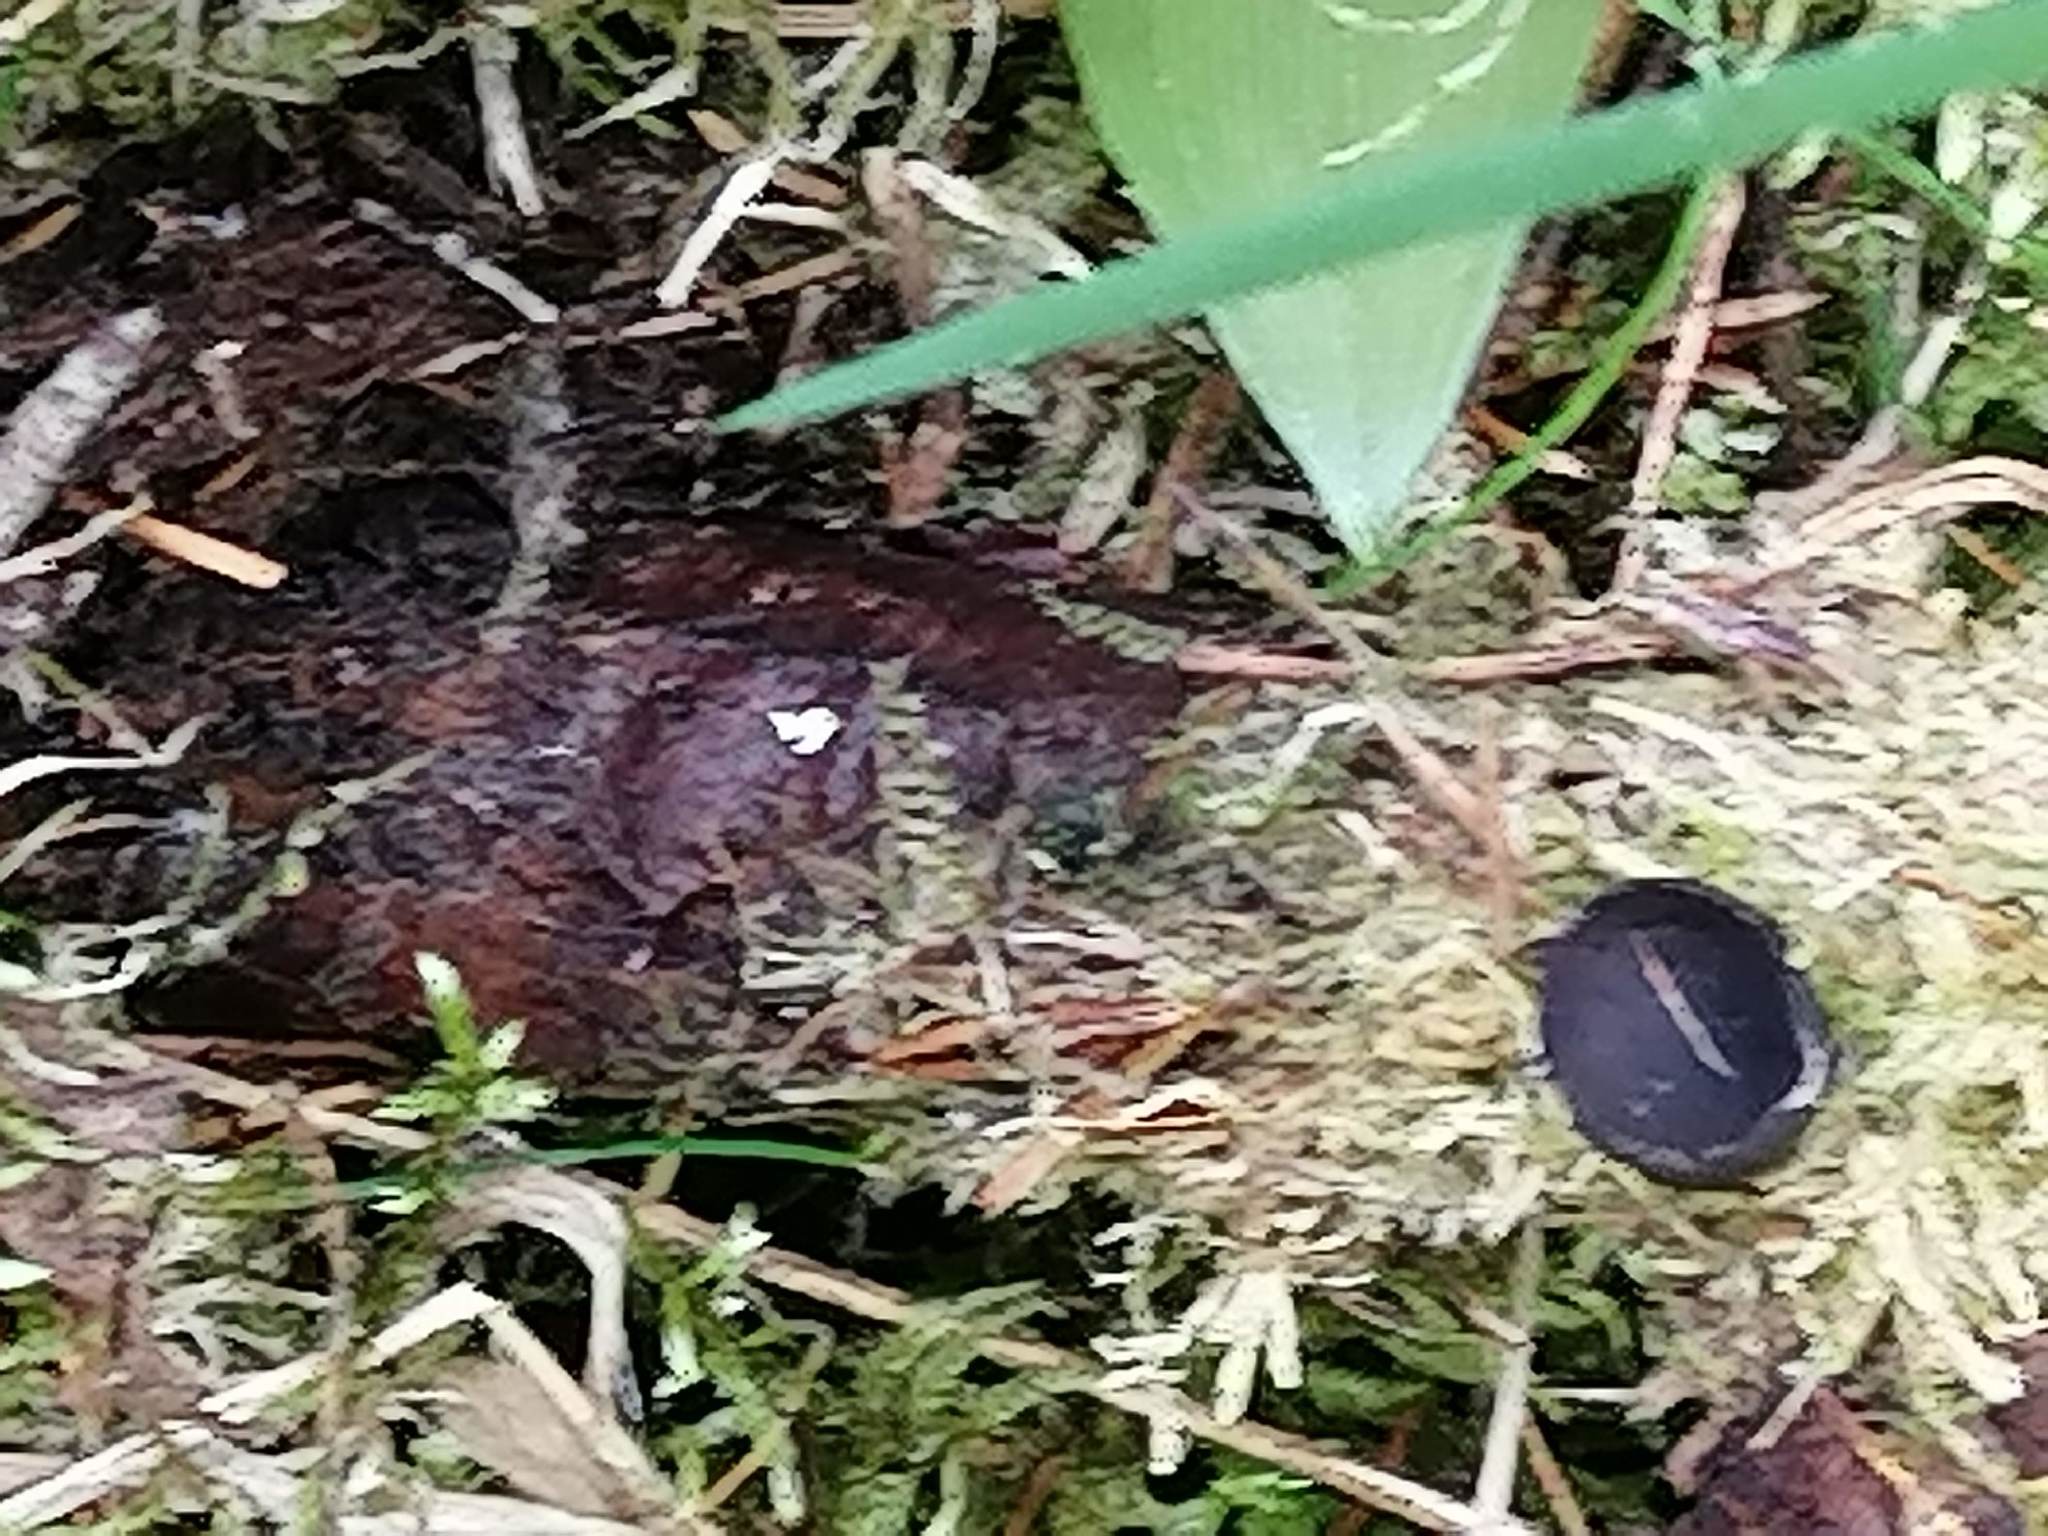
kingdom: Fungi
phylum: Ascomycota
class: Pezizomycetes
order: Pezizales
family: Sarcosomataceae
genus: Pseudoplectania
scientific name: Pseudoplectania nigrella
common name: Ebony cup
